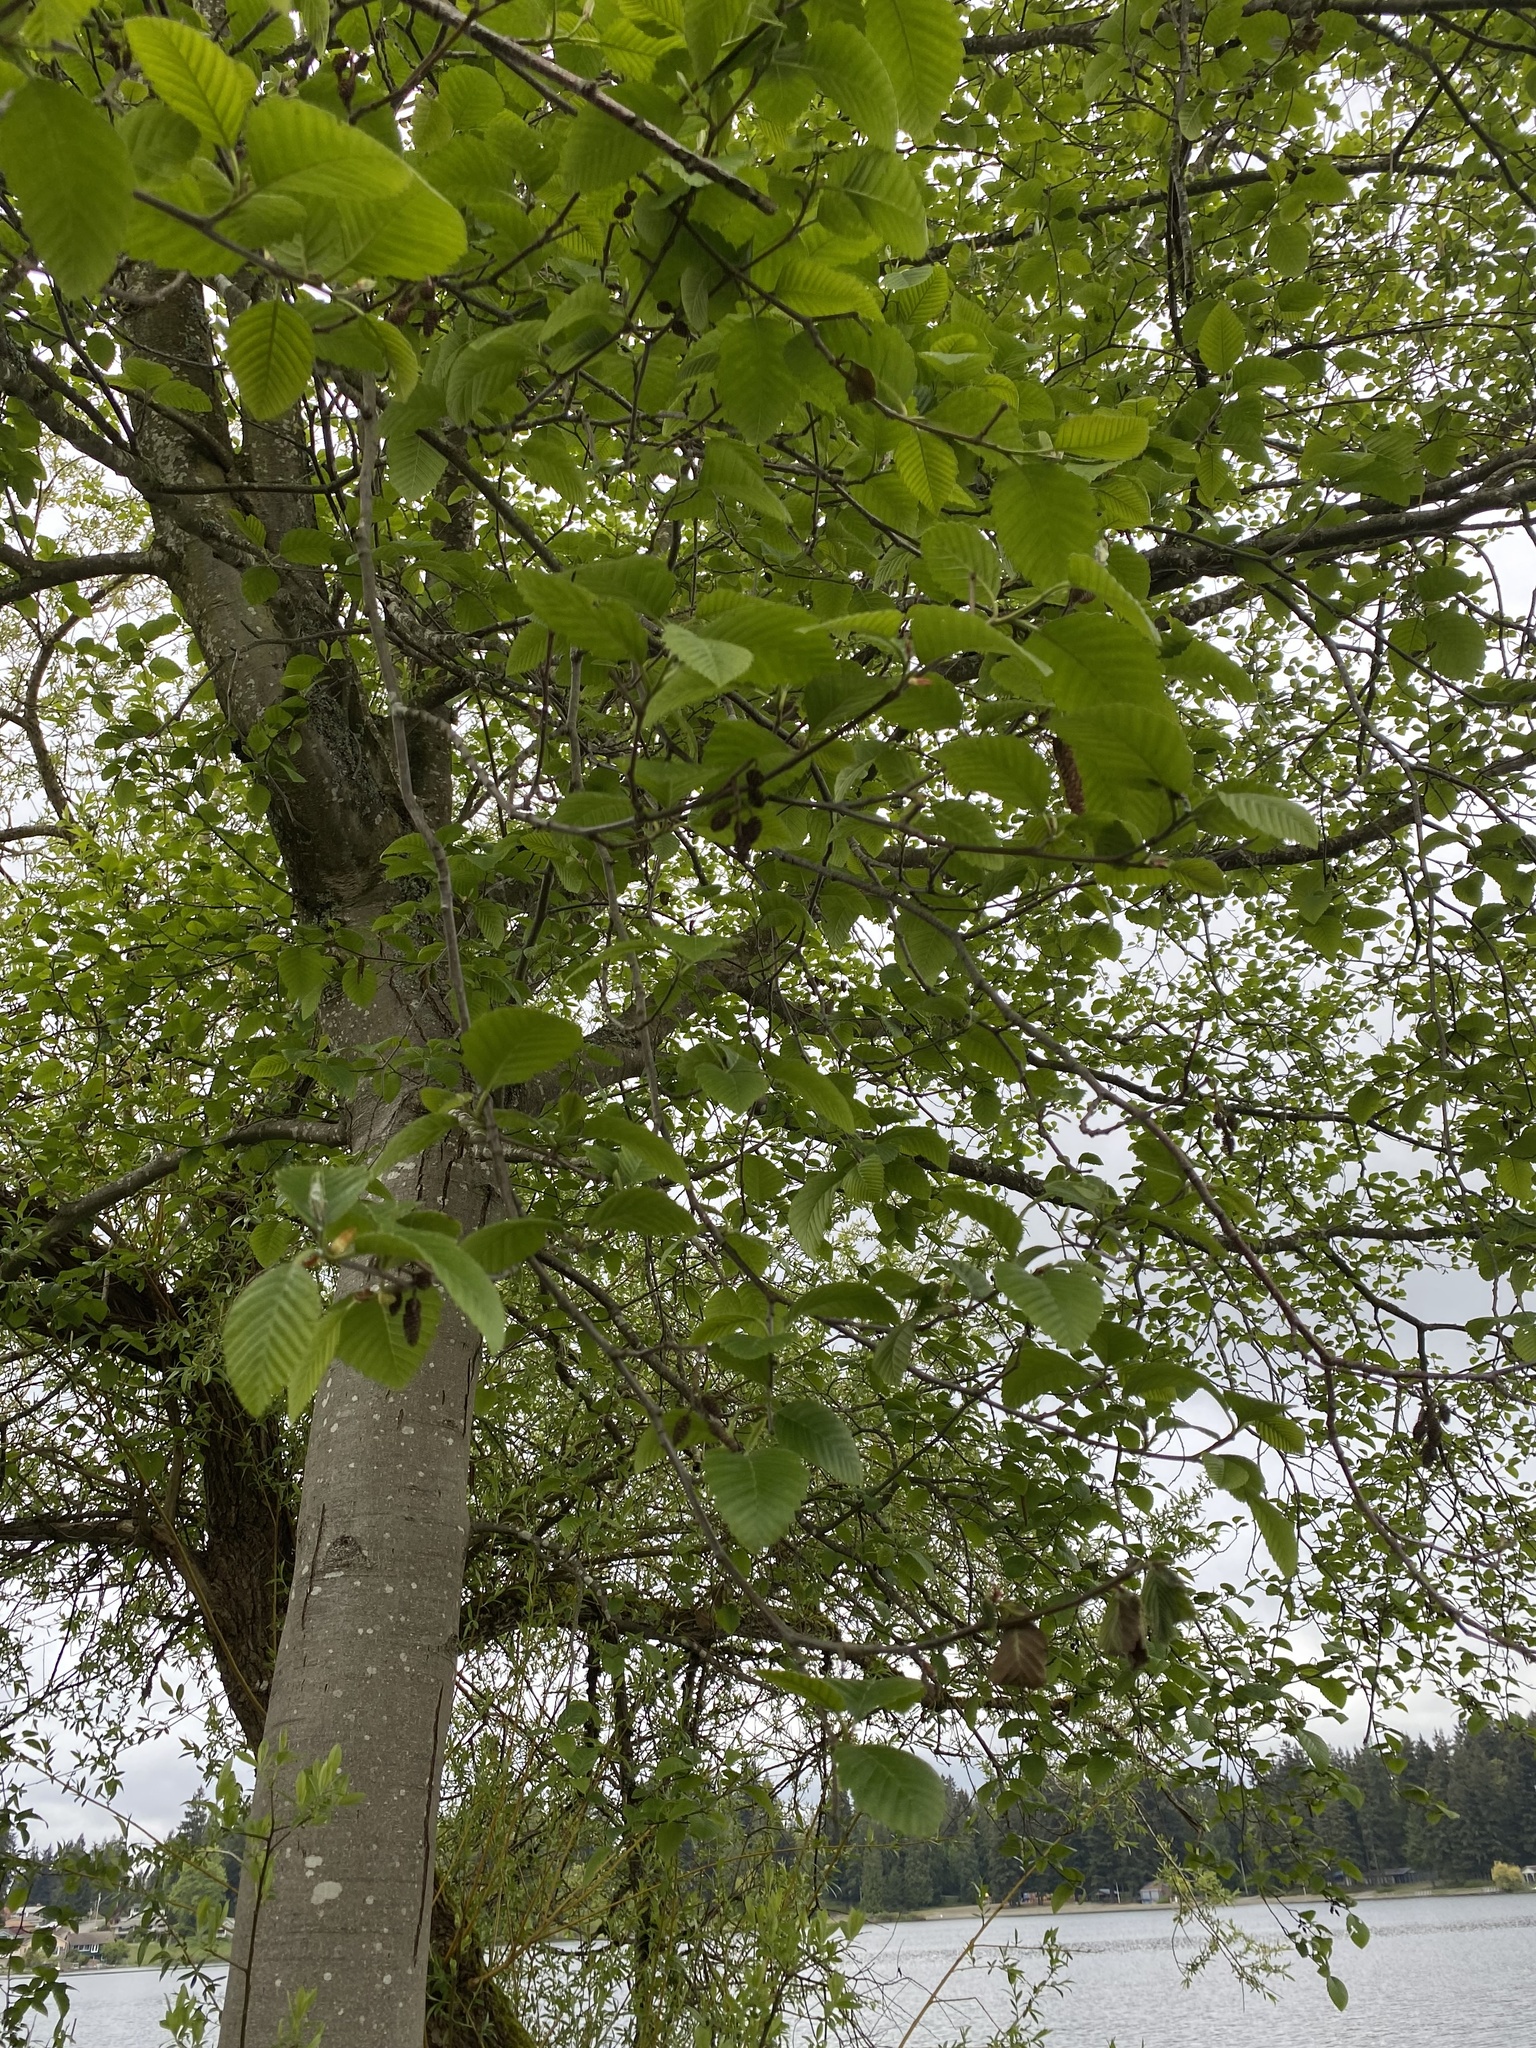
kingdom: Plantae
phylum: Tracheophyta
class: Magnoliopsida
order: Fagales
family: Betulaceae
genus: Alnus
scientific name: Alnus rubra
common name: Red alder
